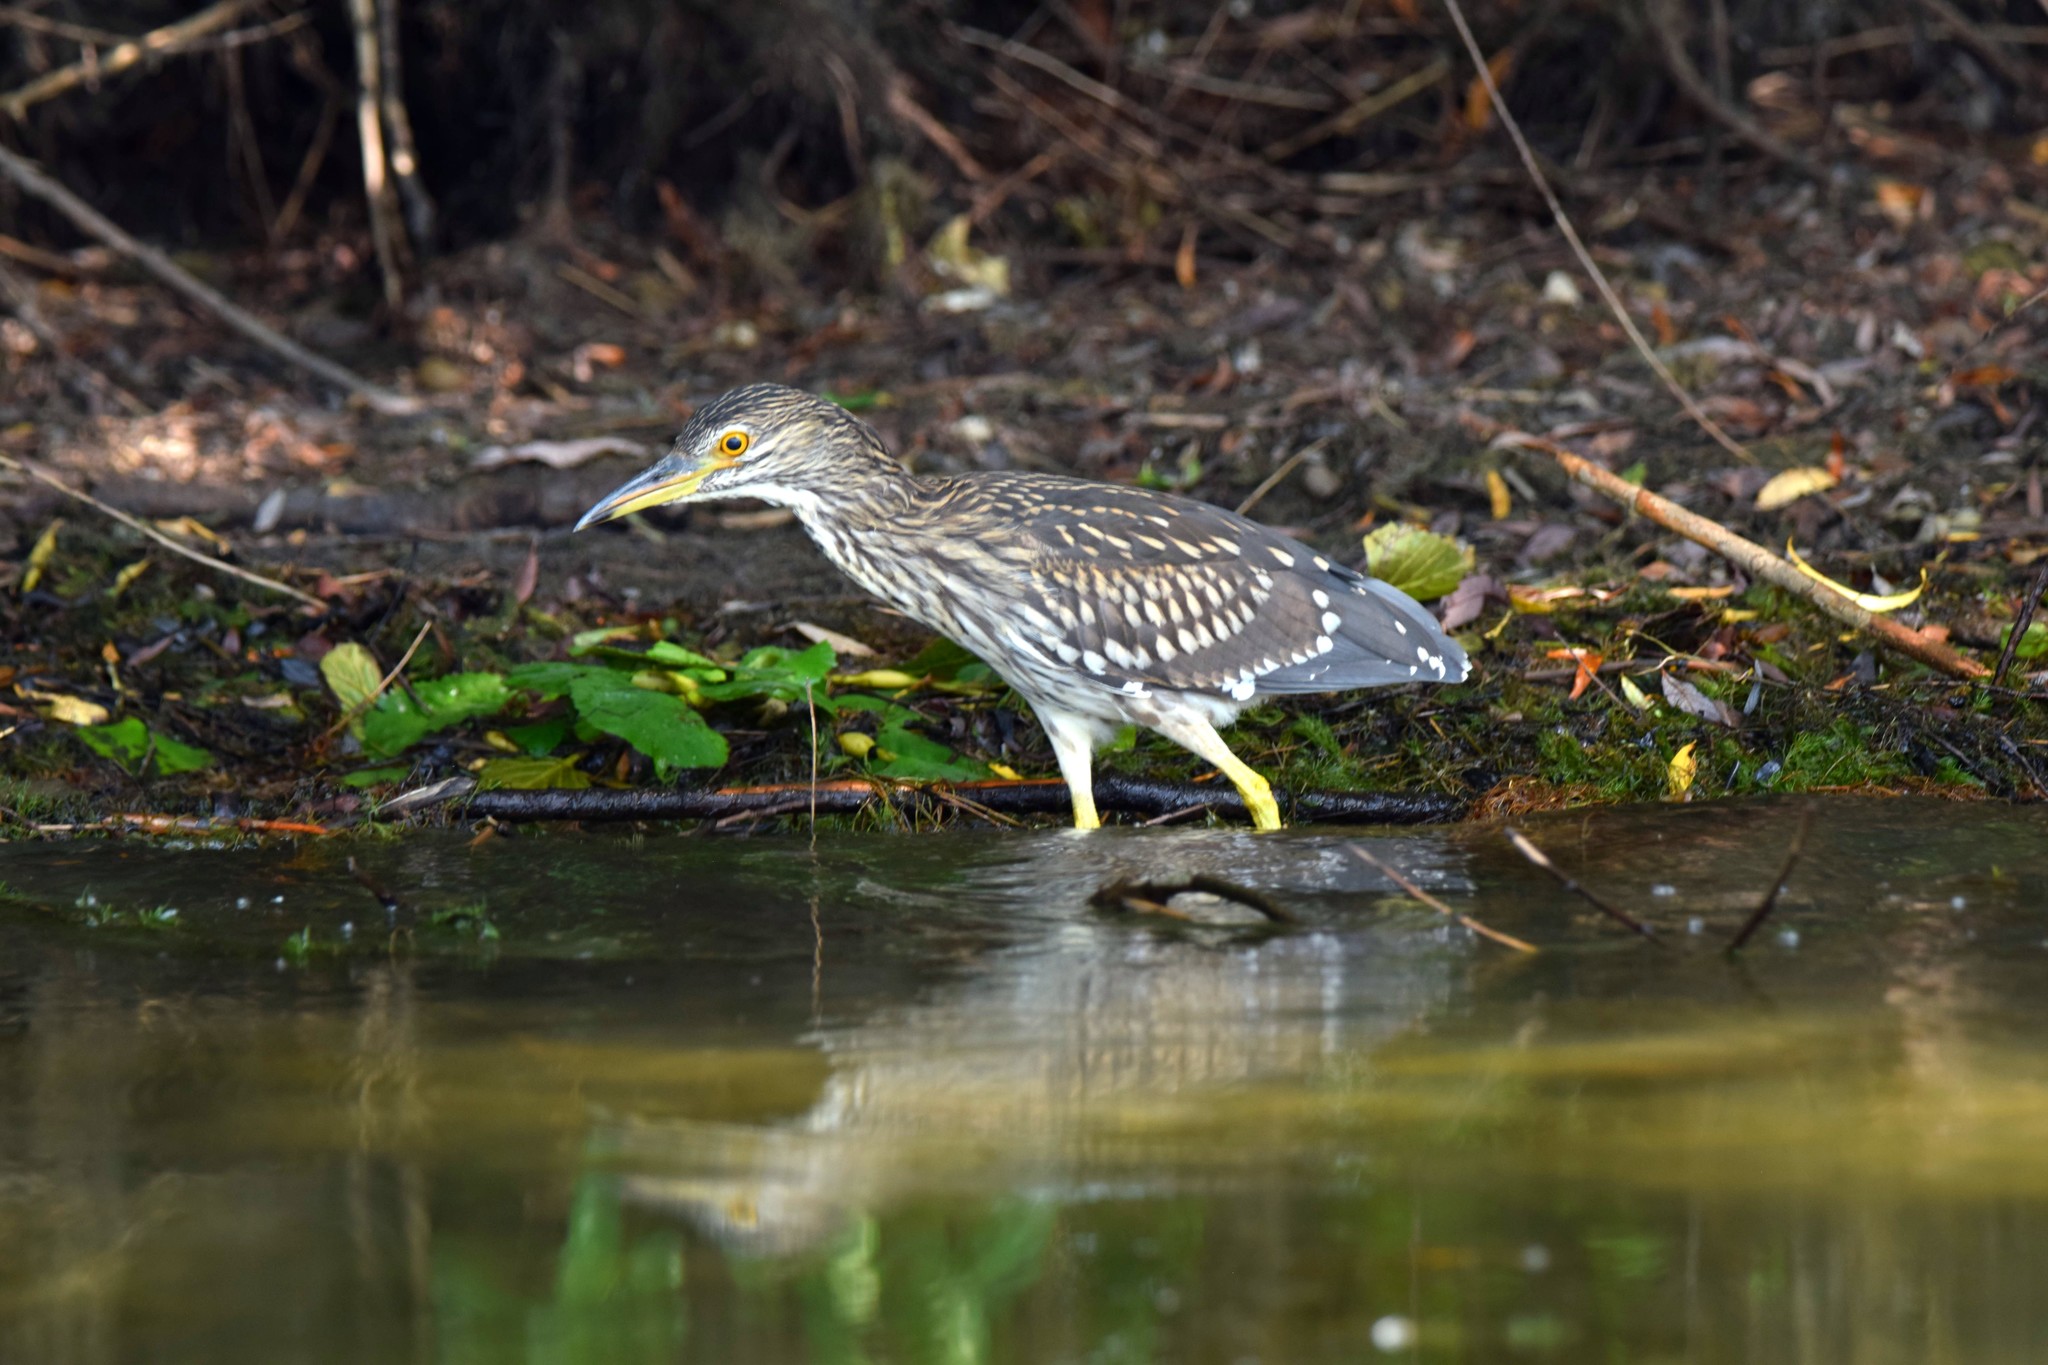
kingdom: Animalia
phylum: Chordata
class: Aves
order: Pelecaniformes
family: Ardeidae
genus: Nycticorax
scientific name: Nycticorax nycticorax
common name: Black-crowned night heron
